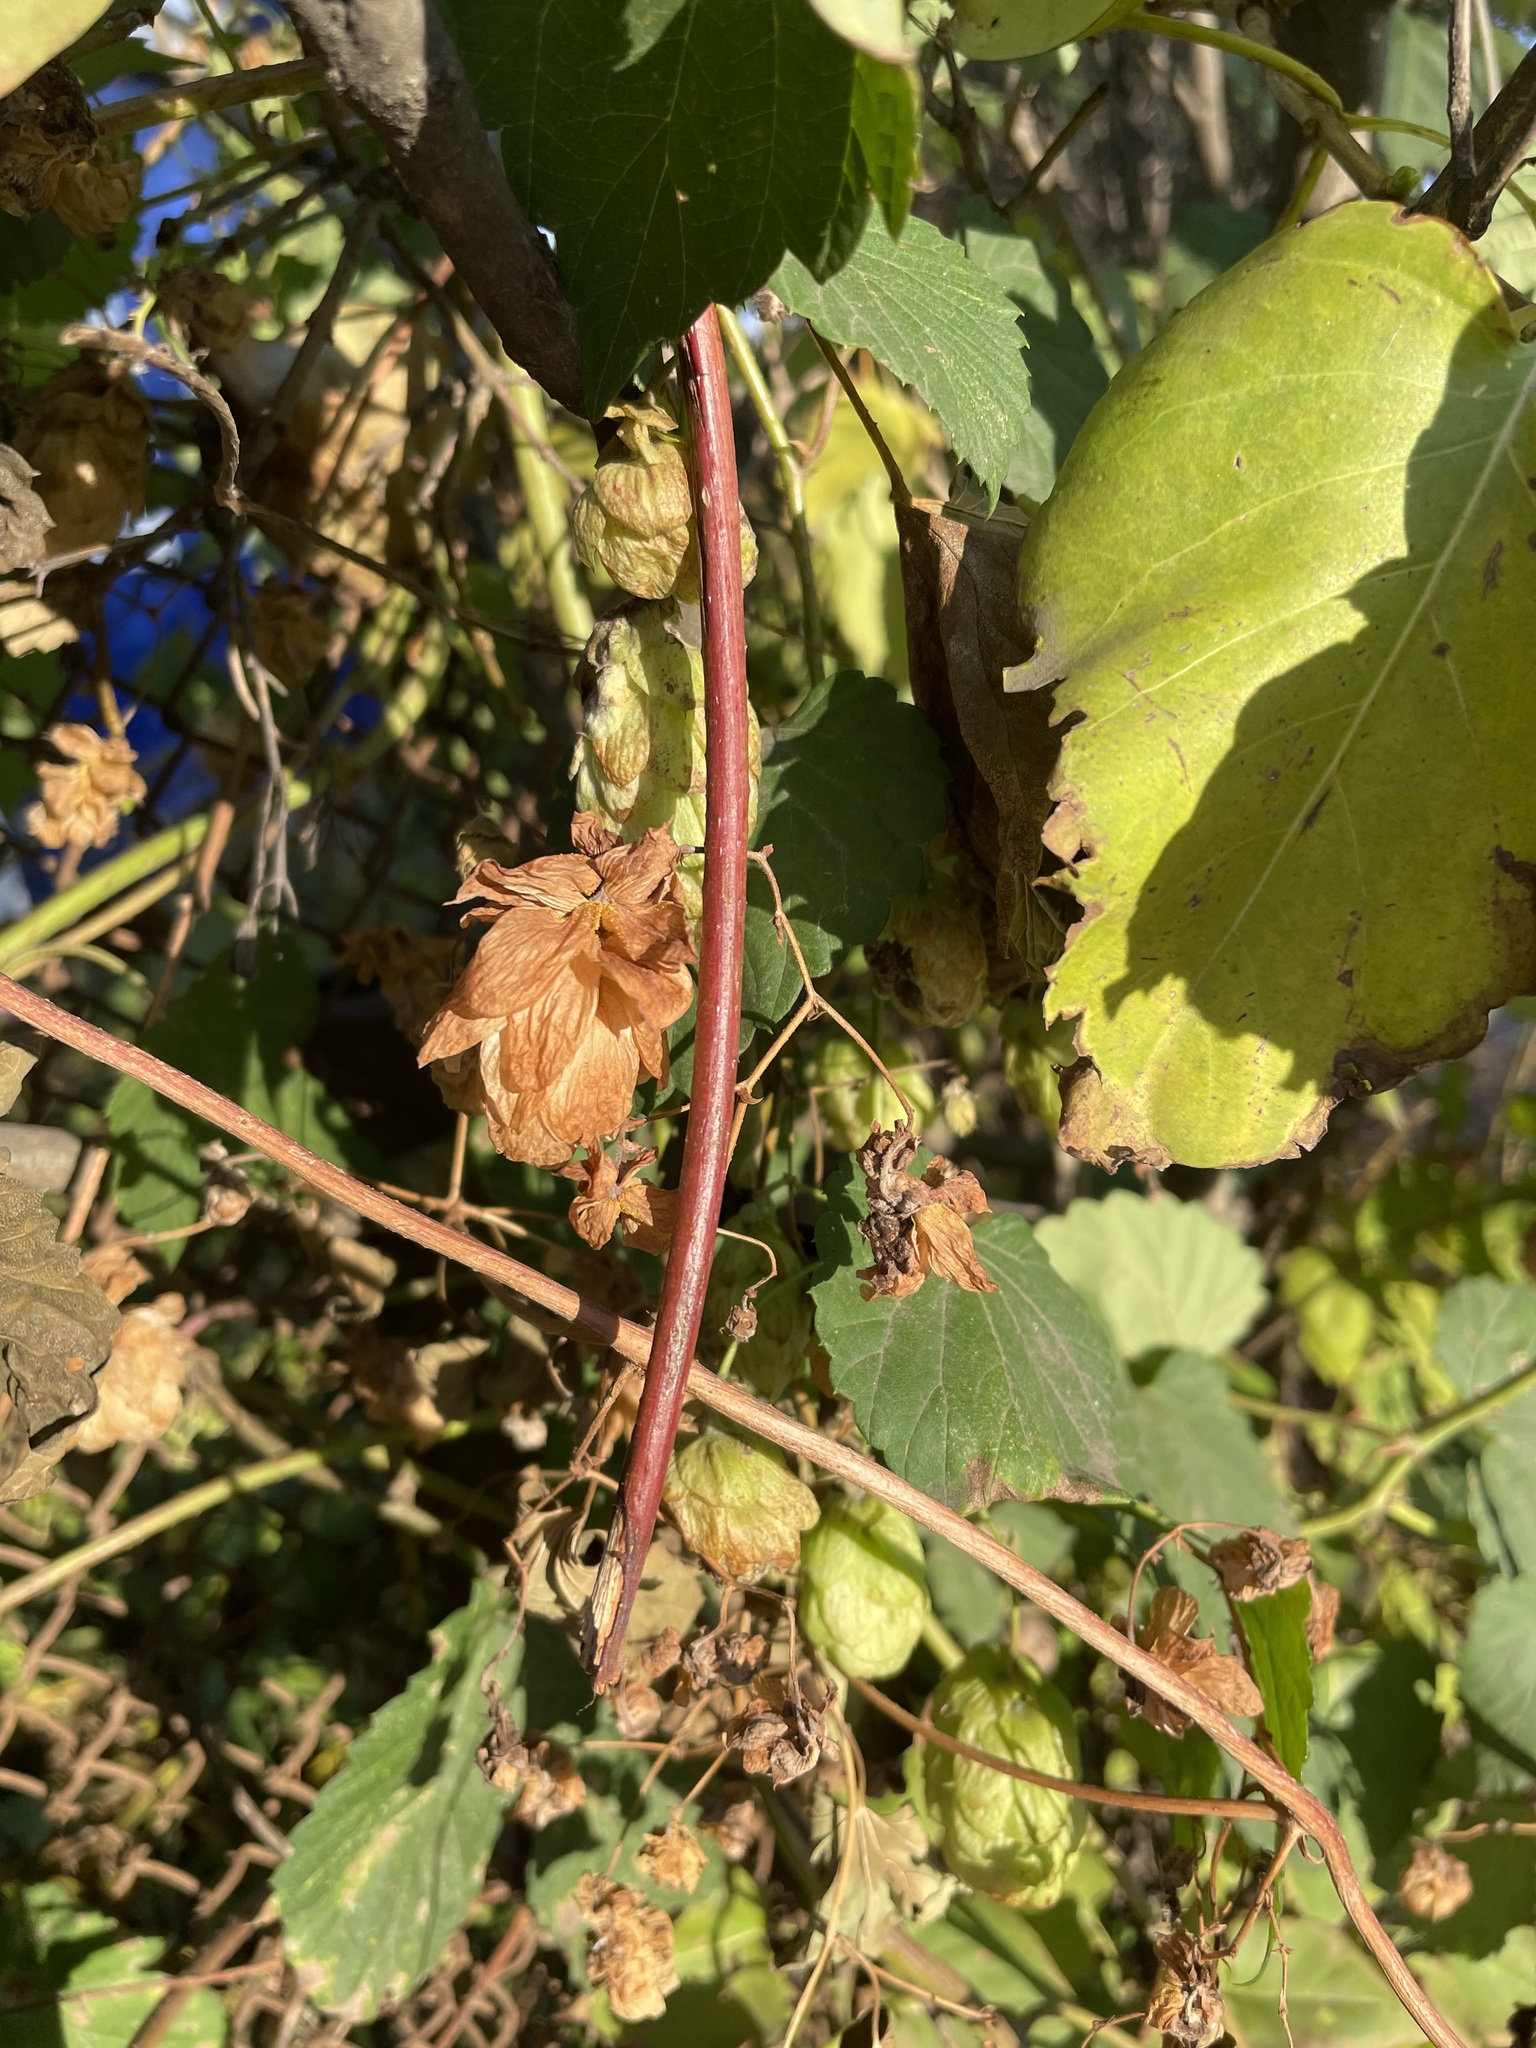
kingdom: Plantae
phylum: Tracheophyta
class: Magnoliopsida
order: Rosales
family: Cannabaceae
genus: Humulus
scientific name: Humulus lupulus
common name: Hop
